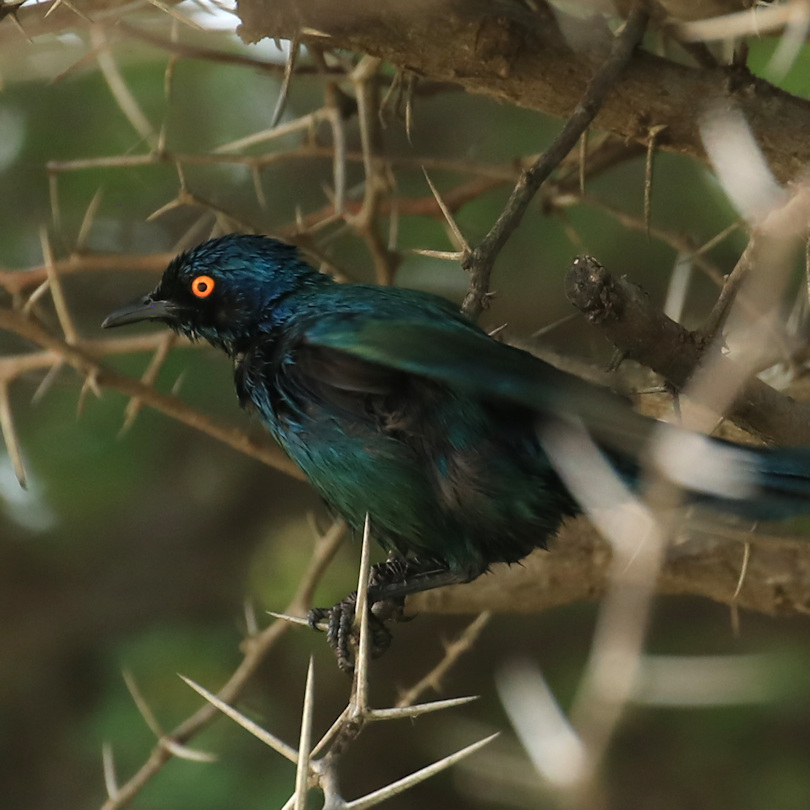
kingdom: Animalia
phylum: Chordata
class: Aves
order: Passeriformes
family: Sturnidae
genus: Lamprotornis
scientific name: Lamprotornis nitens
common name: Cape starling
